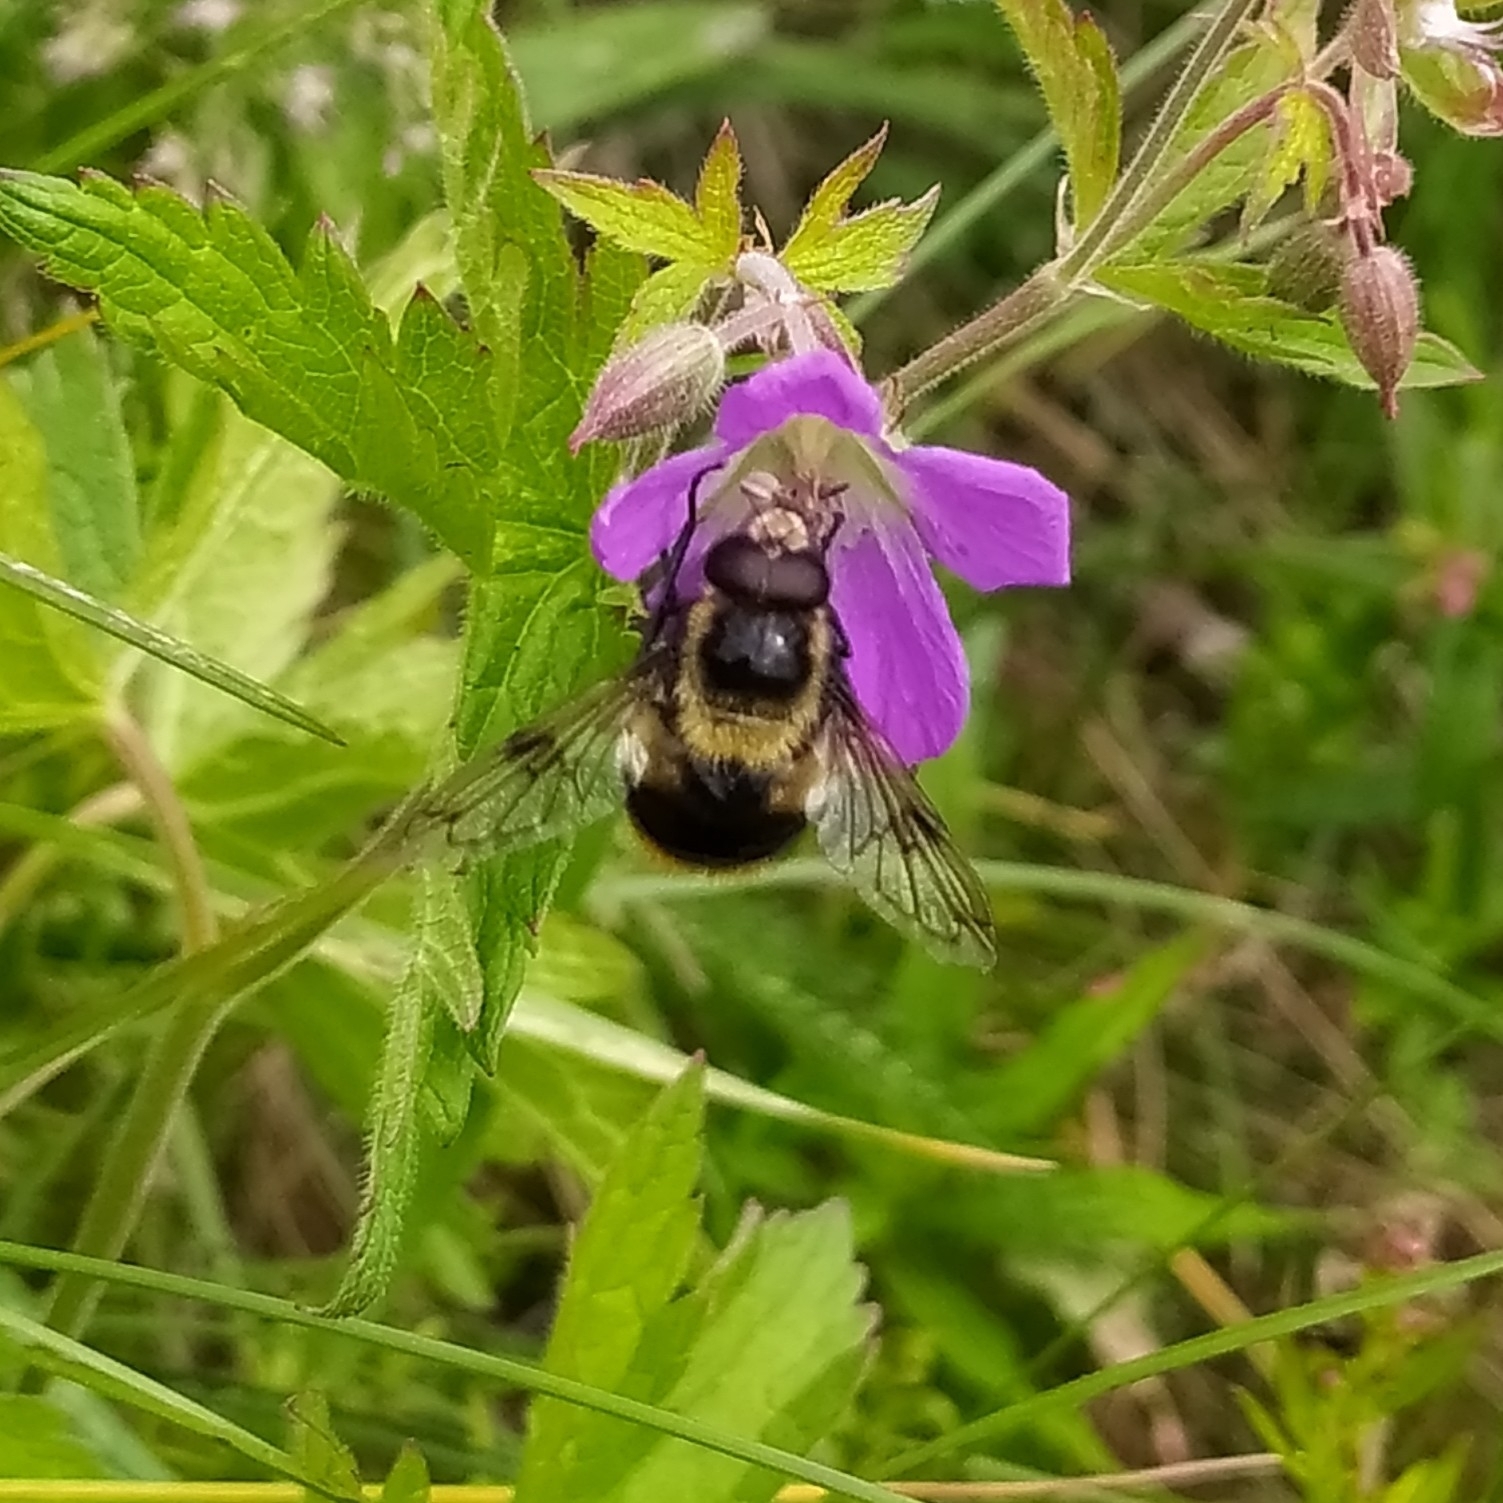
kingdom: Animalia
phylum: Arthropoda
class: Insecta
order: Diptera
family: Syrphidae
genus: Volucella
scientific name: Volucella bombylans
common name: Bumble bee hover fly
